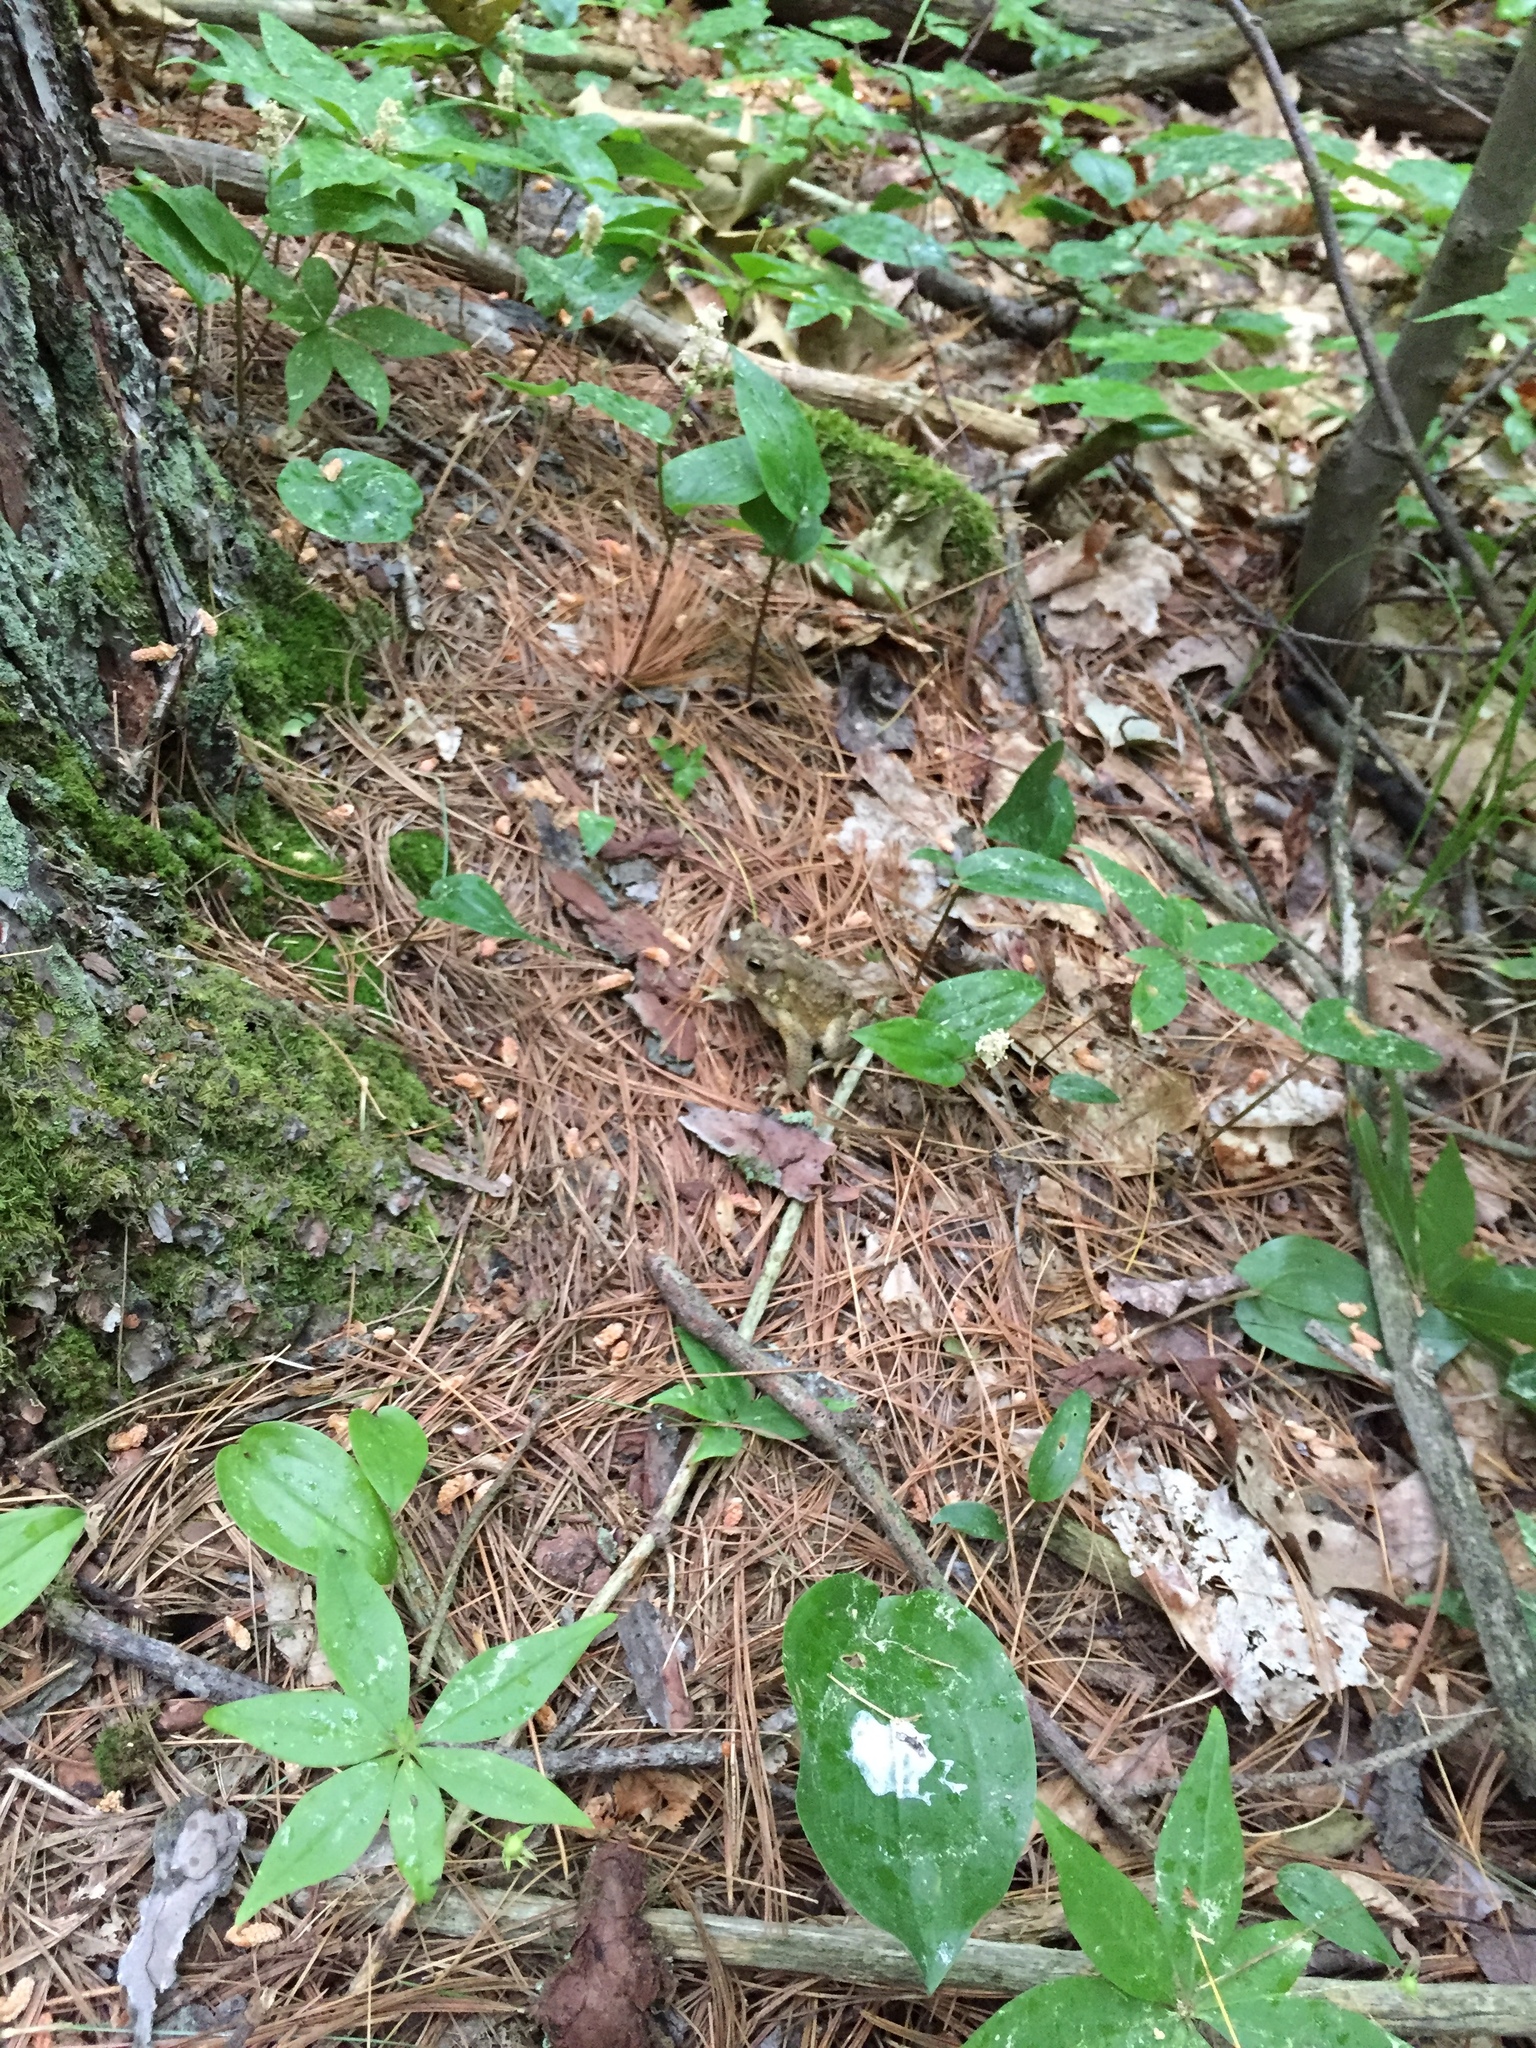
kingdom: Animalia
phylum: Chordata
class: Amphibia
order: Anura
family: Bufonidae
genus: Anaxyrus
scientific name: Anaxyrus americanus
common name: American toad
